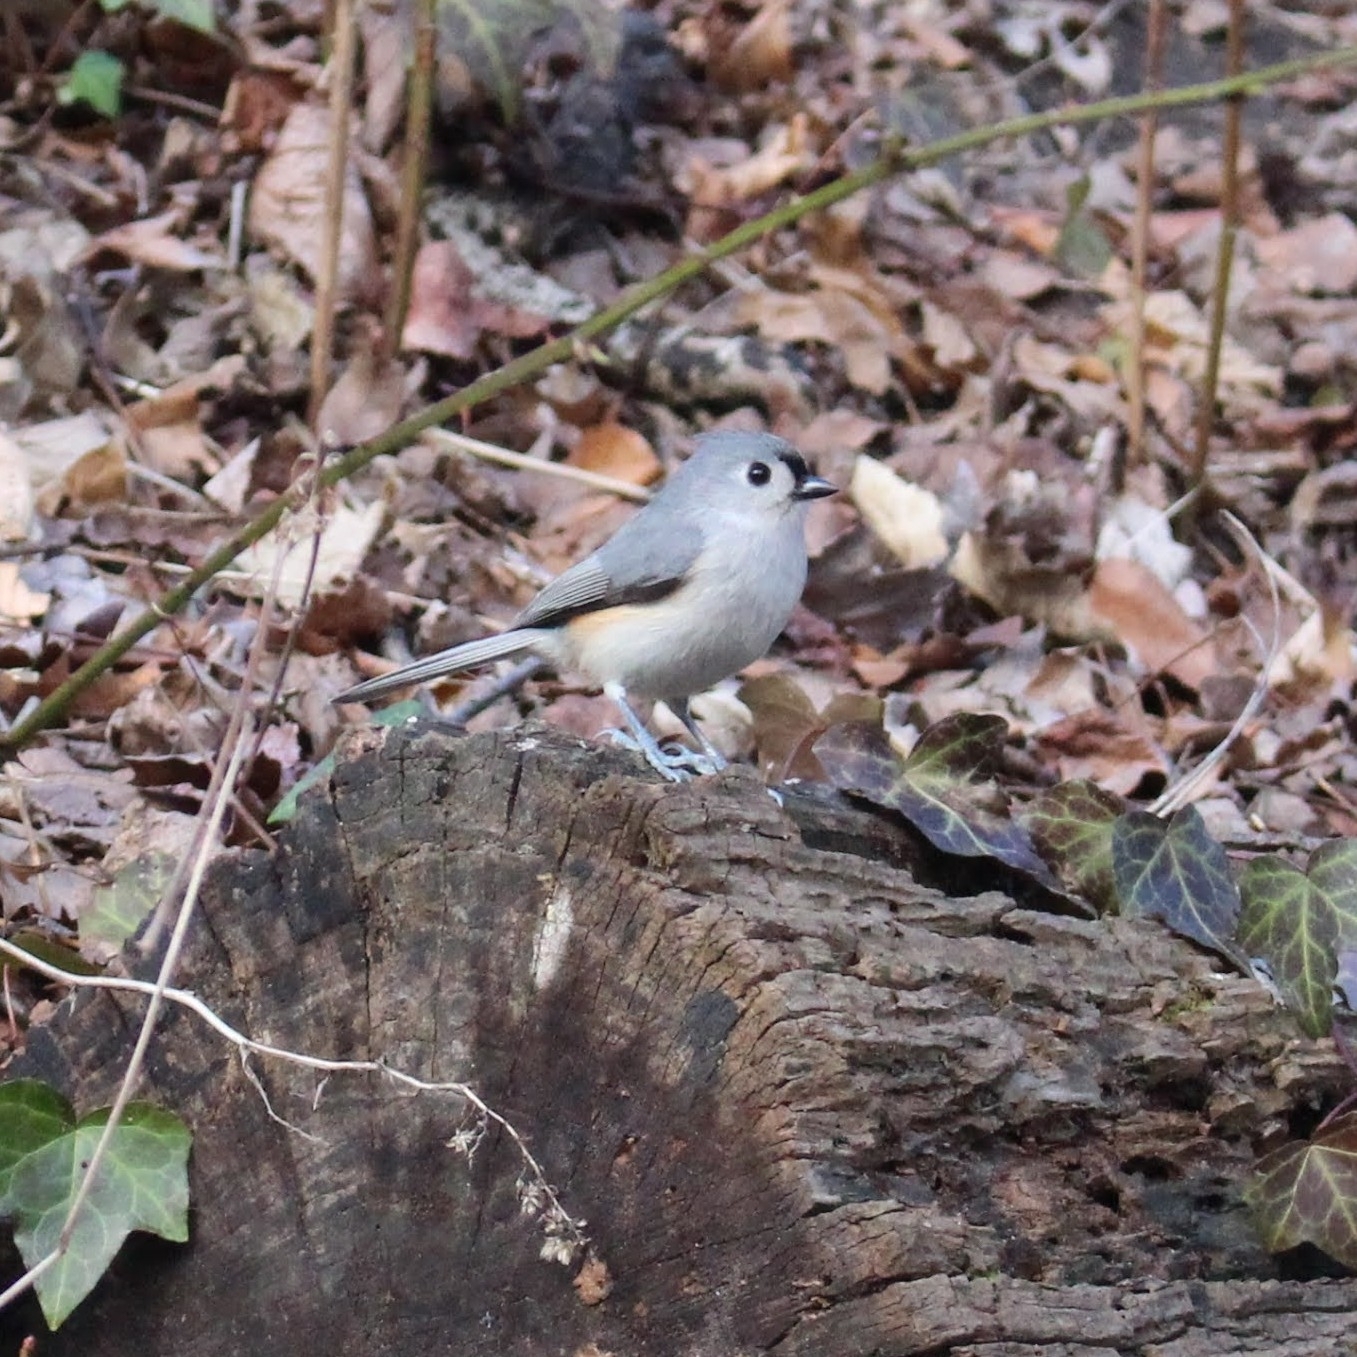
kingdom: Animalia
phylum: Chordata
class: Aves
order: Passeriformes
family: Paridae
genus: Baeolophus
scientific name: Baeolophus bicolor
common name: Tufted titmouse
